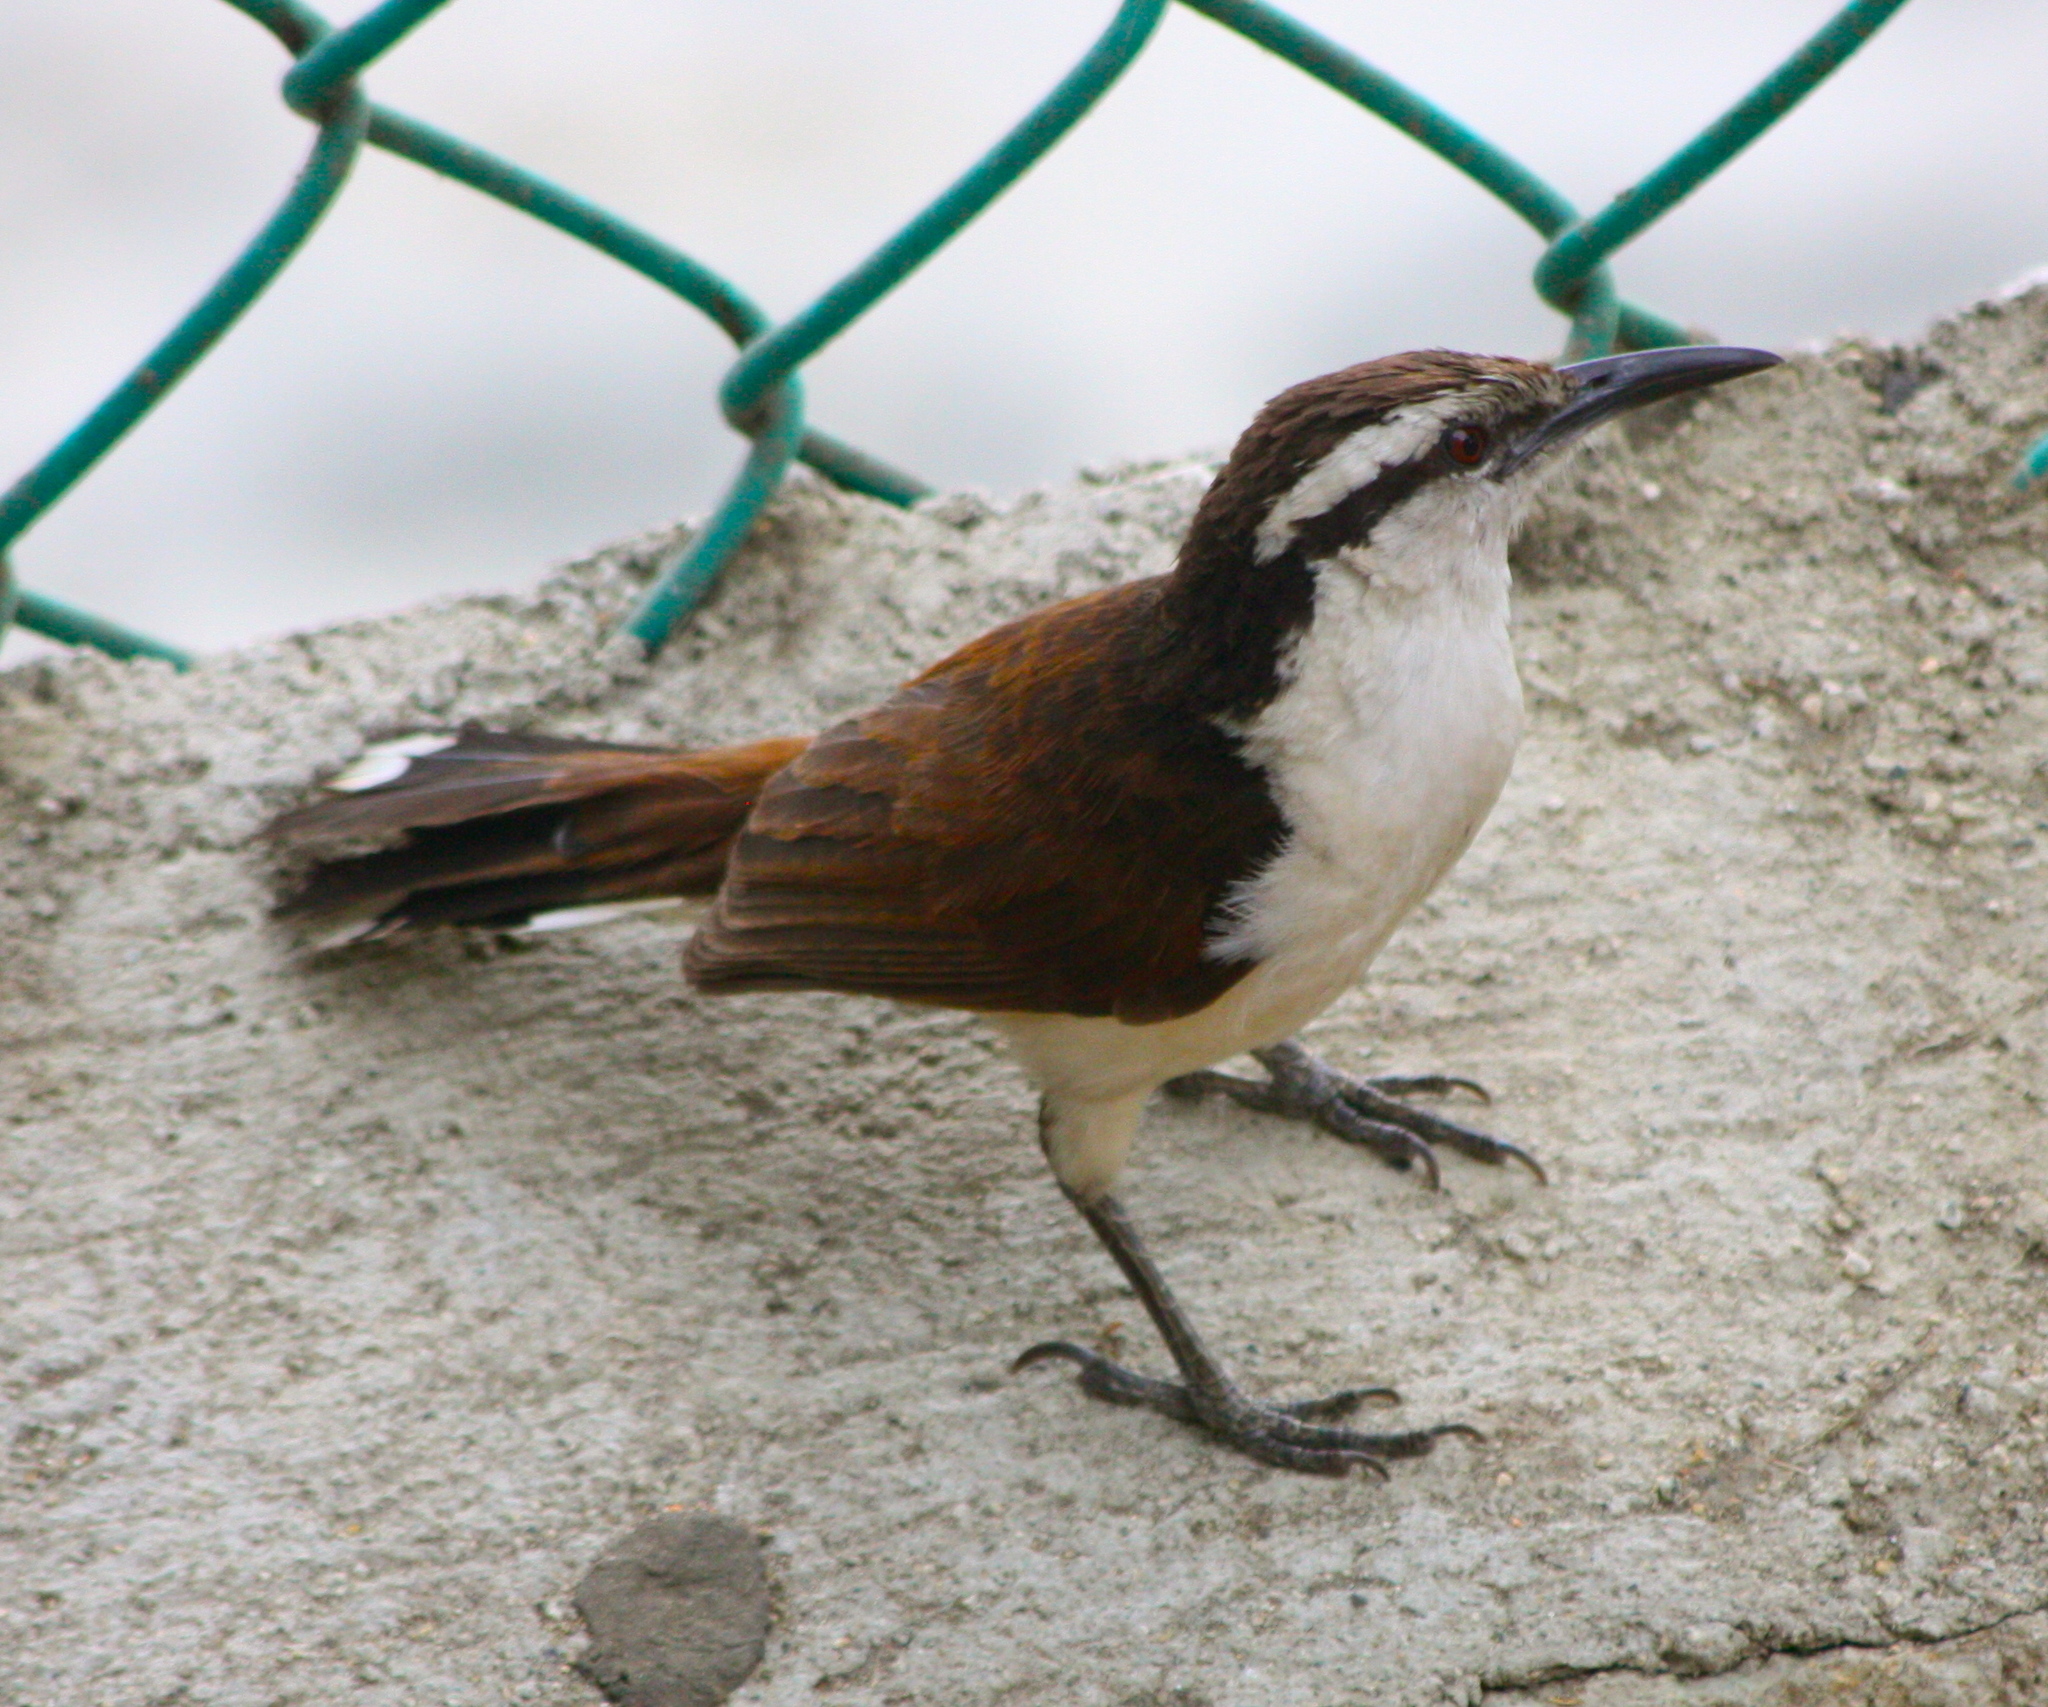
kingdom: Animalia
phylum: Chordata
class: Aves
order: Passeriformes
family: Troglodytidae
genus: Campylorhynchus
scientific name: Campylorhynchus griseus
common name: Bicolored wren
